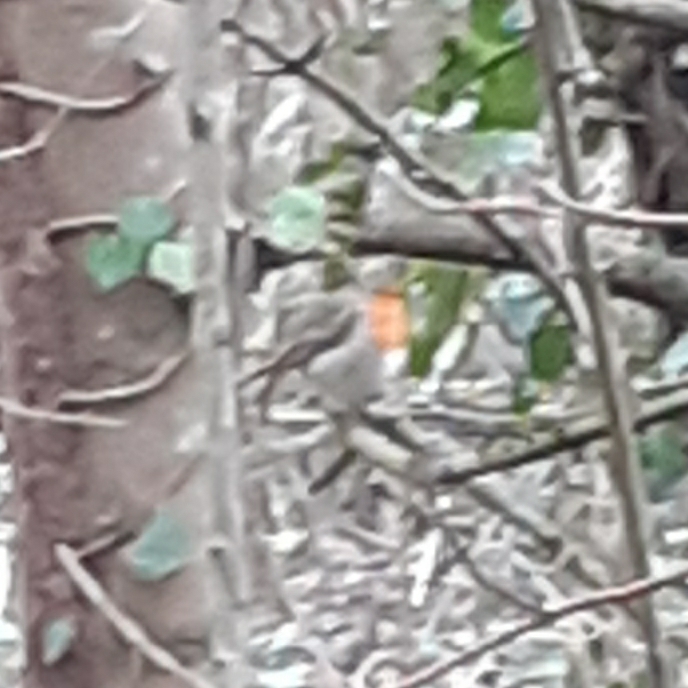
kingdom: Animalia
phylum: Chordata
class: Aves
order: Passeriformes
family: Muscicapidae
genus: Erithacus
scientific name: Erithacus rubecula
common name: European robin
